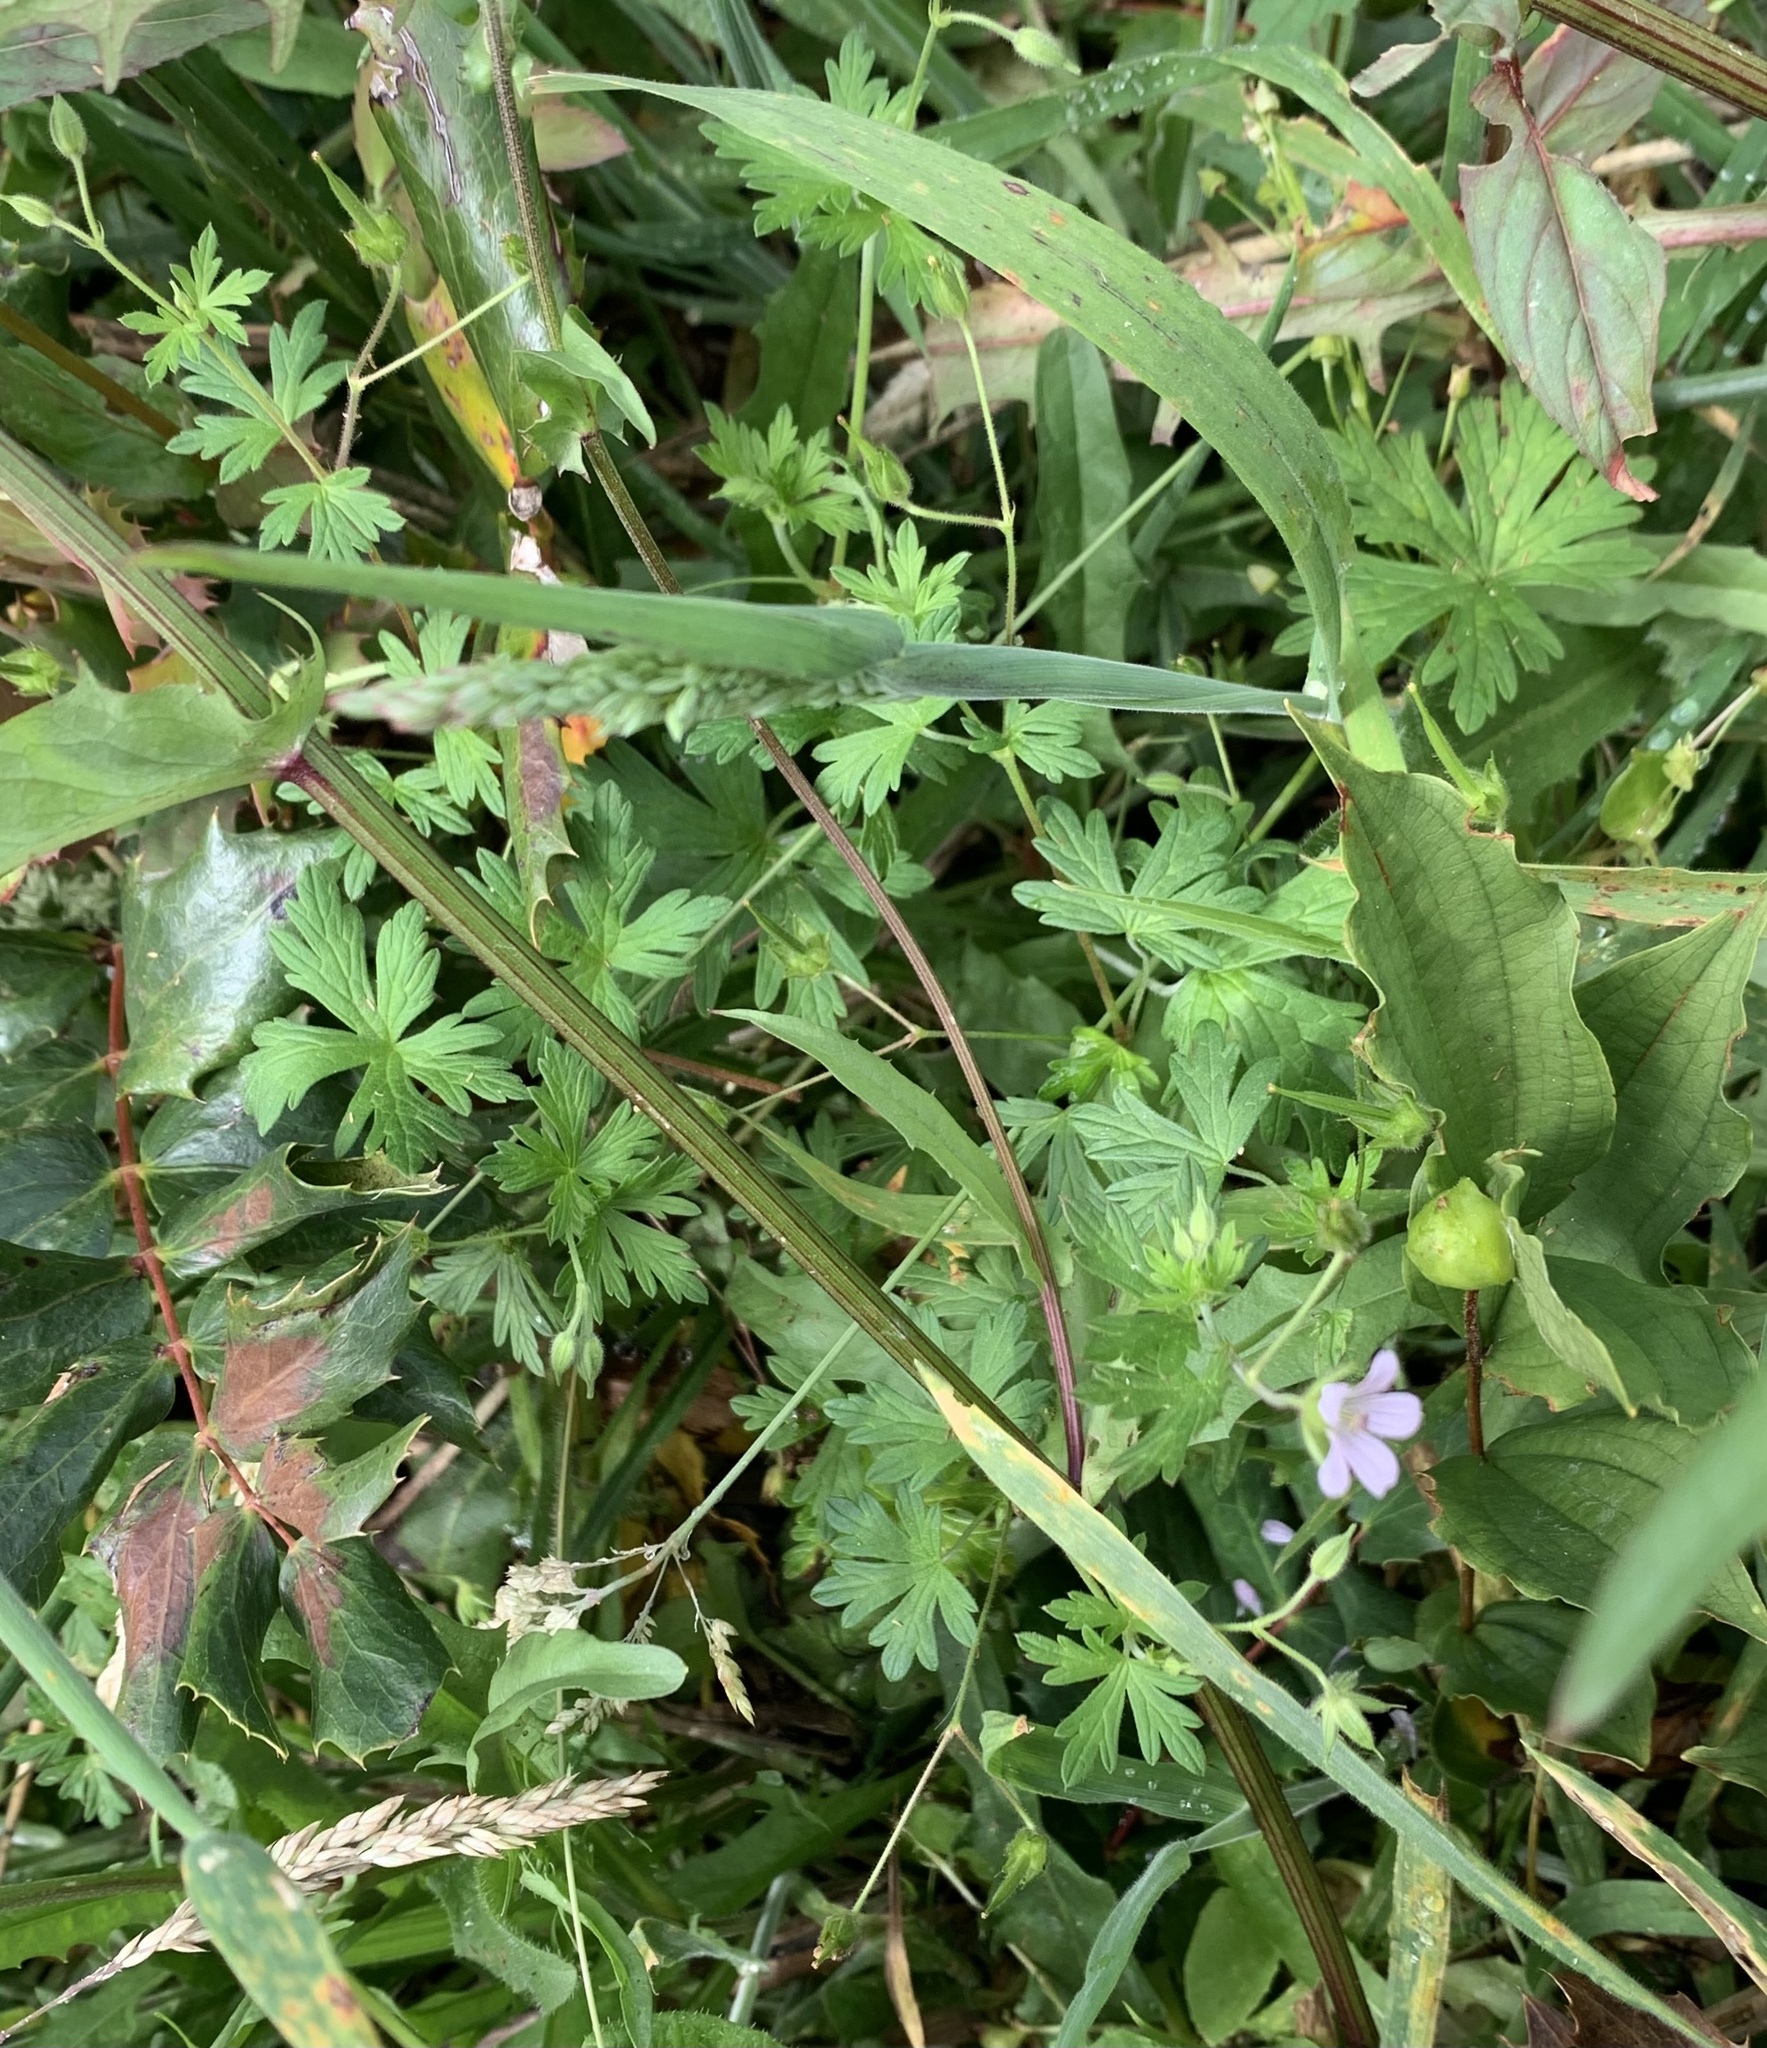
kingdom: Plantae
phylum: Tracheophyta
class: Magnoliopsida
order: Geraniales
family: Geraniaceae
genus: Geranium
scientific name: Geranium carolinianum
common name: Carolina crane's-bill
